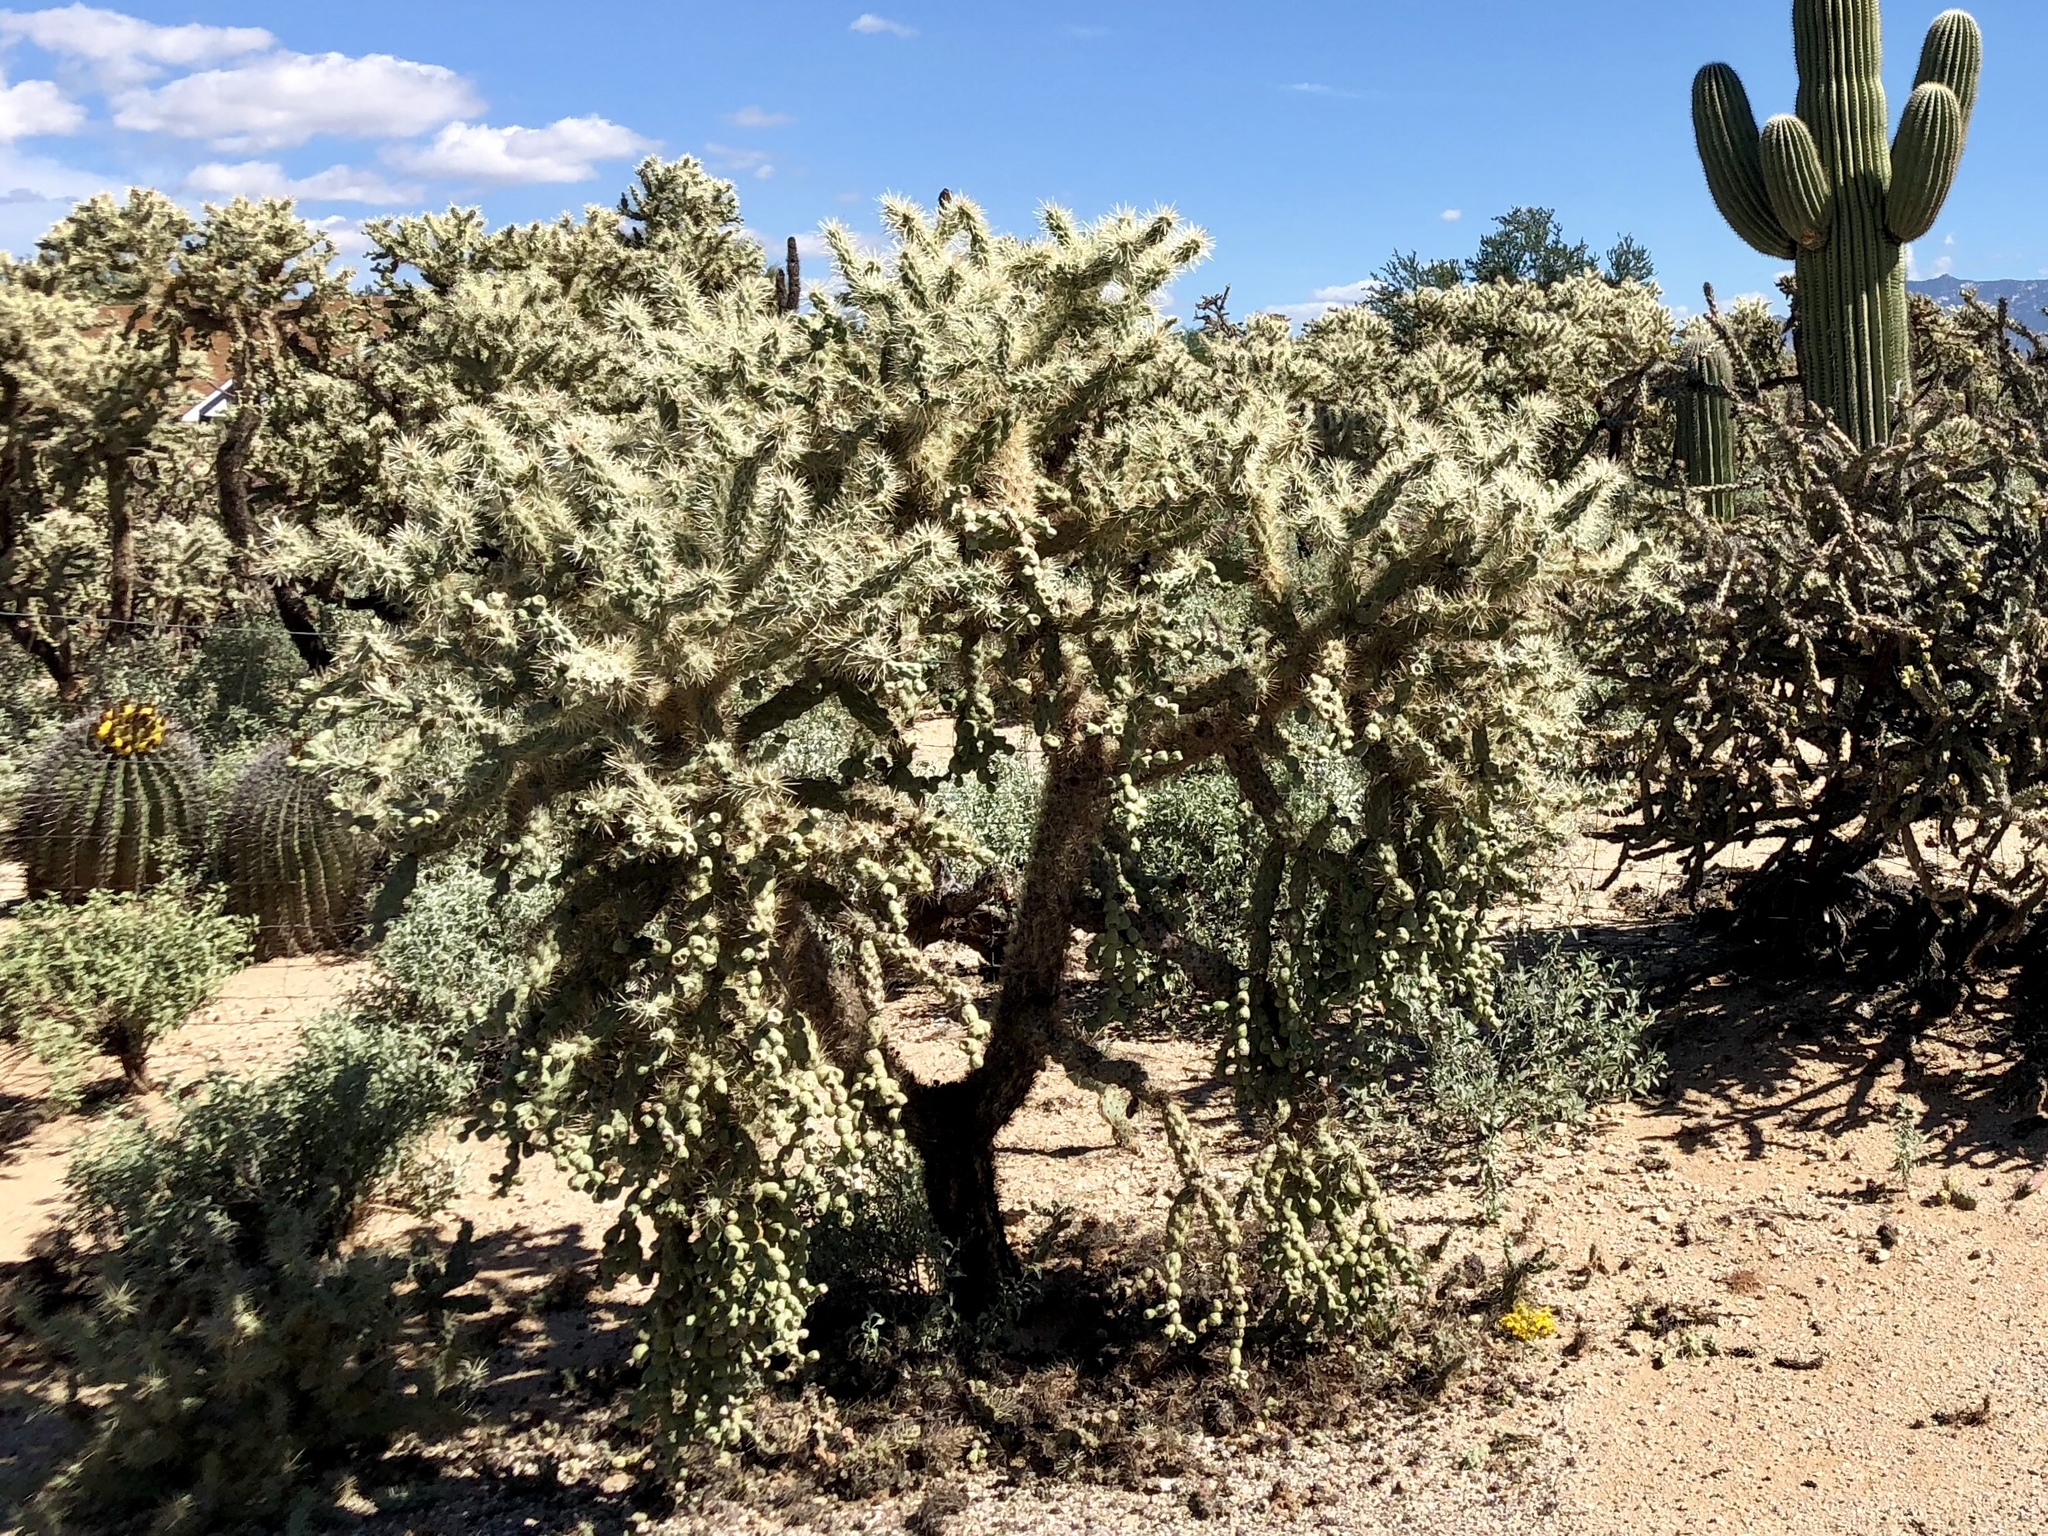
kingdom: Plantae
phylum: Tracheophyta
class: Magnoliopsida
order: Caryophyllales
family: Cactaceae
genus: Cylindropuntia
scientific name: Cylindropuntia fulgida
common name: Jumping cholla
